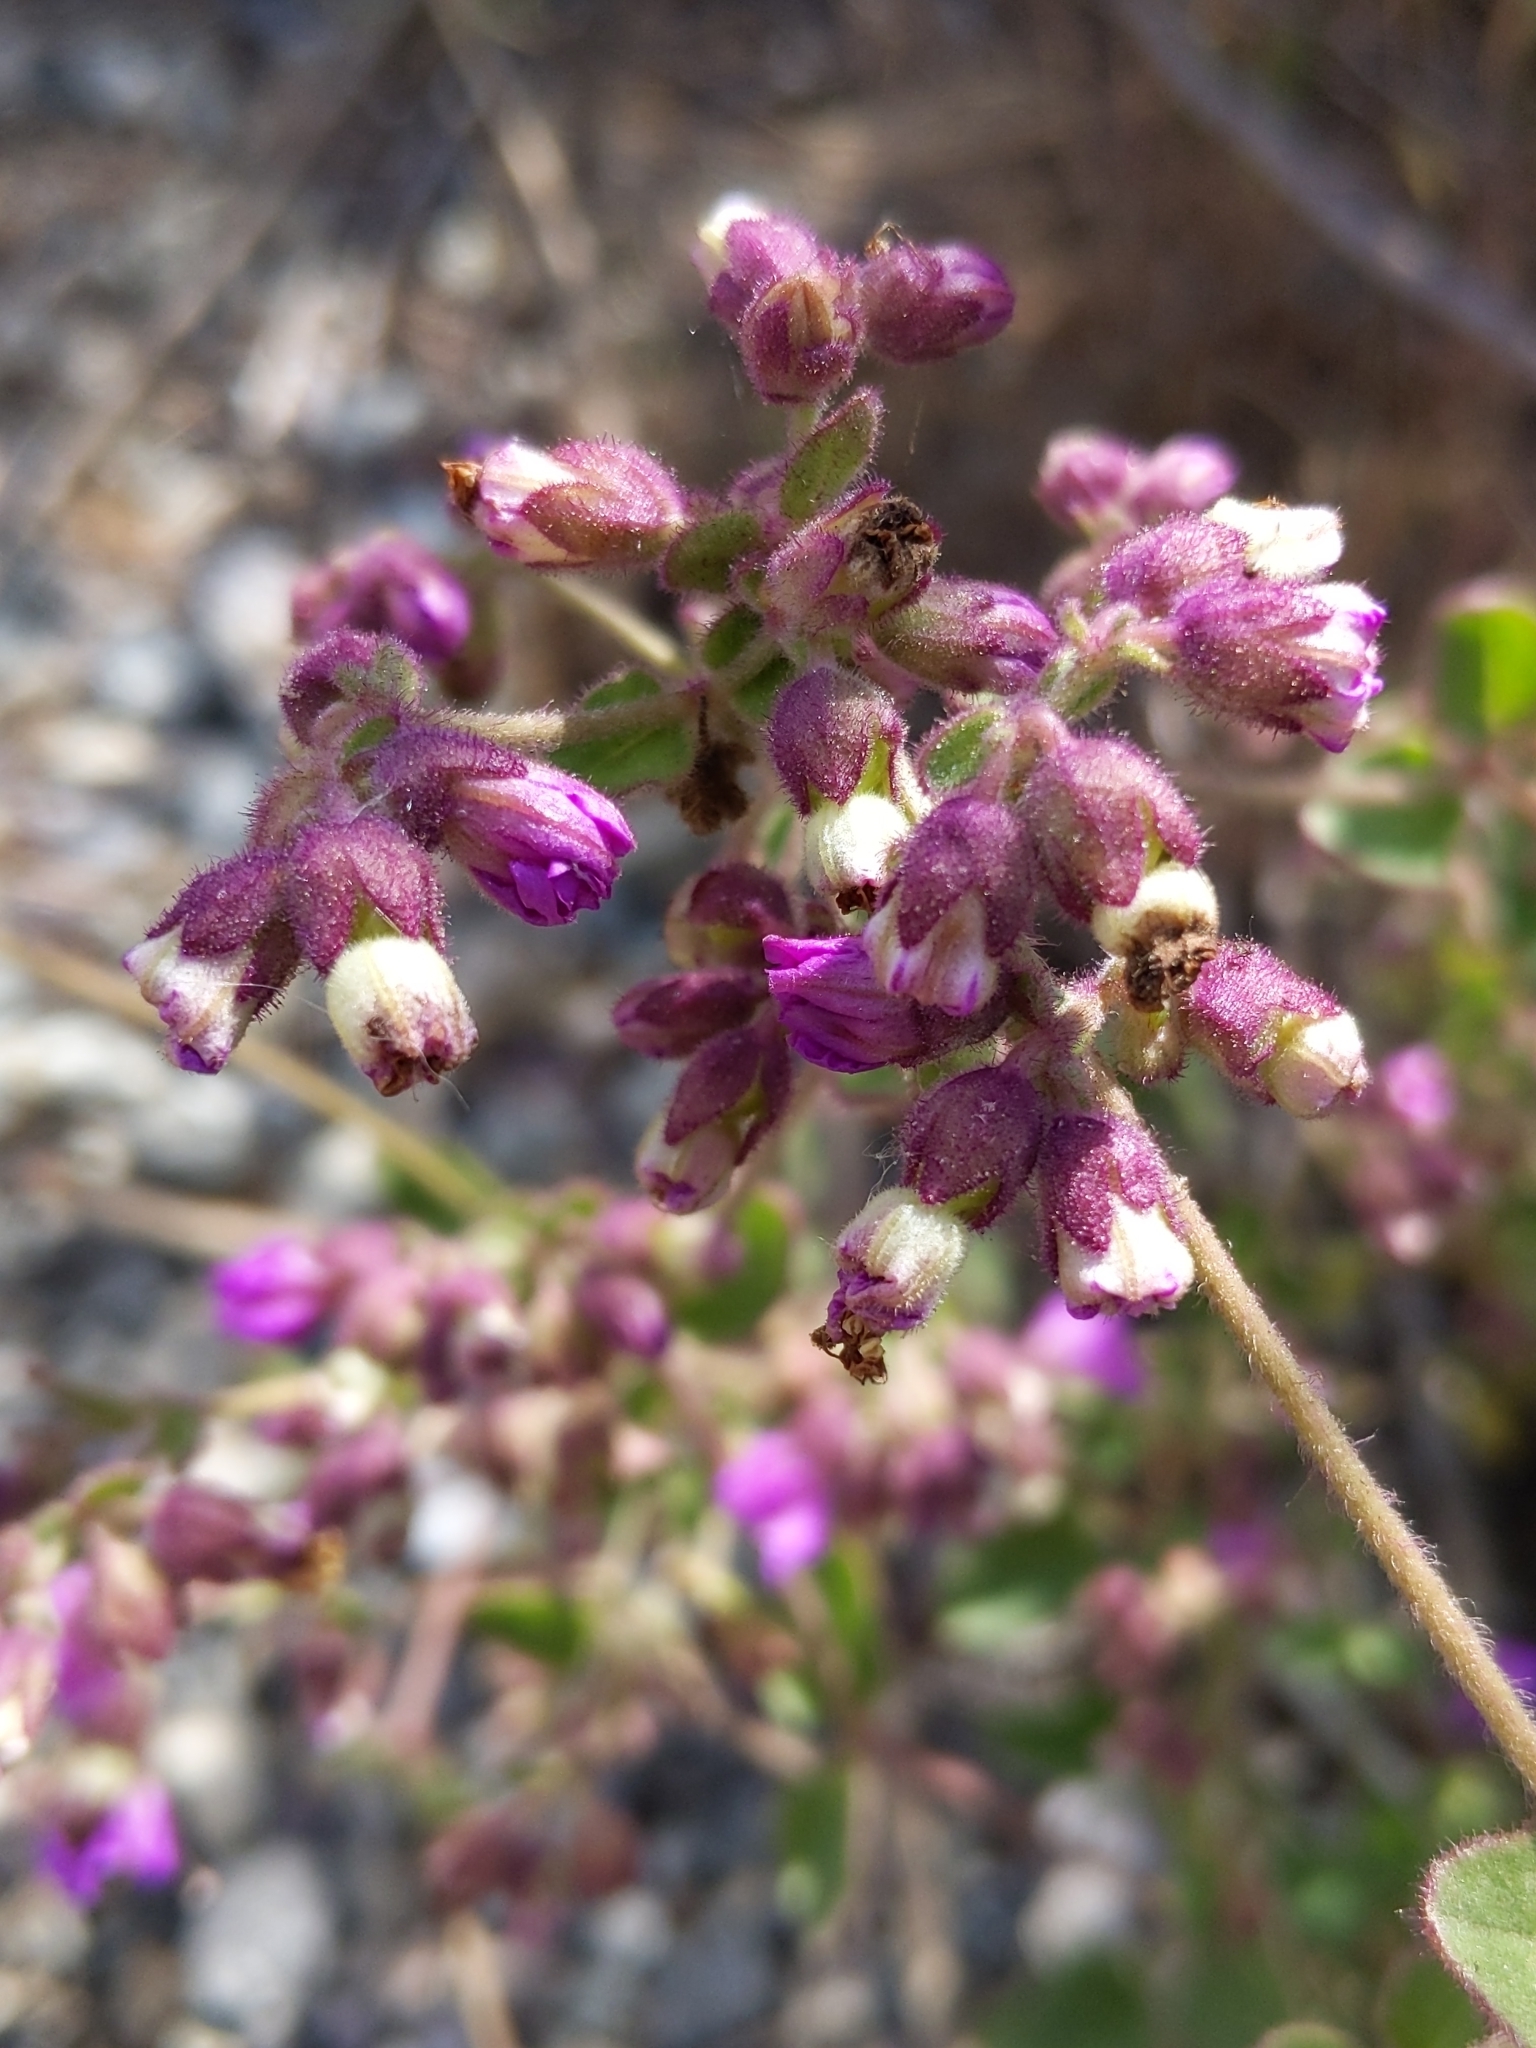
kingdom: Plantae
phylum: Tracheophyta
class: Magnoliopsida
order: Caryophyllales
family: Nyctaginaceae
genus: Mirabilis
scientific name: Mirabilis laevis
